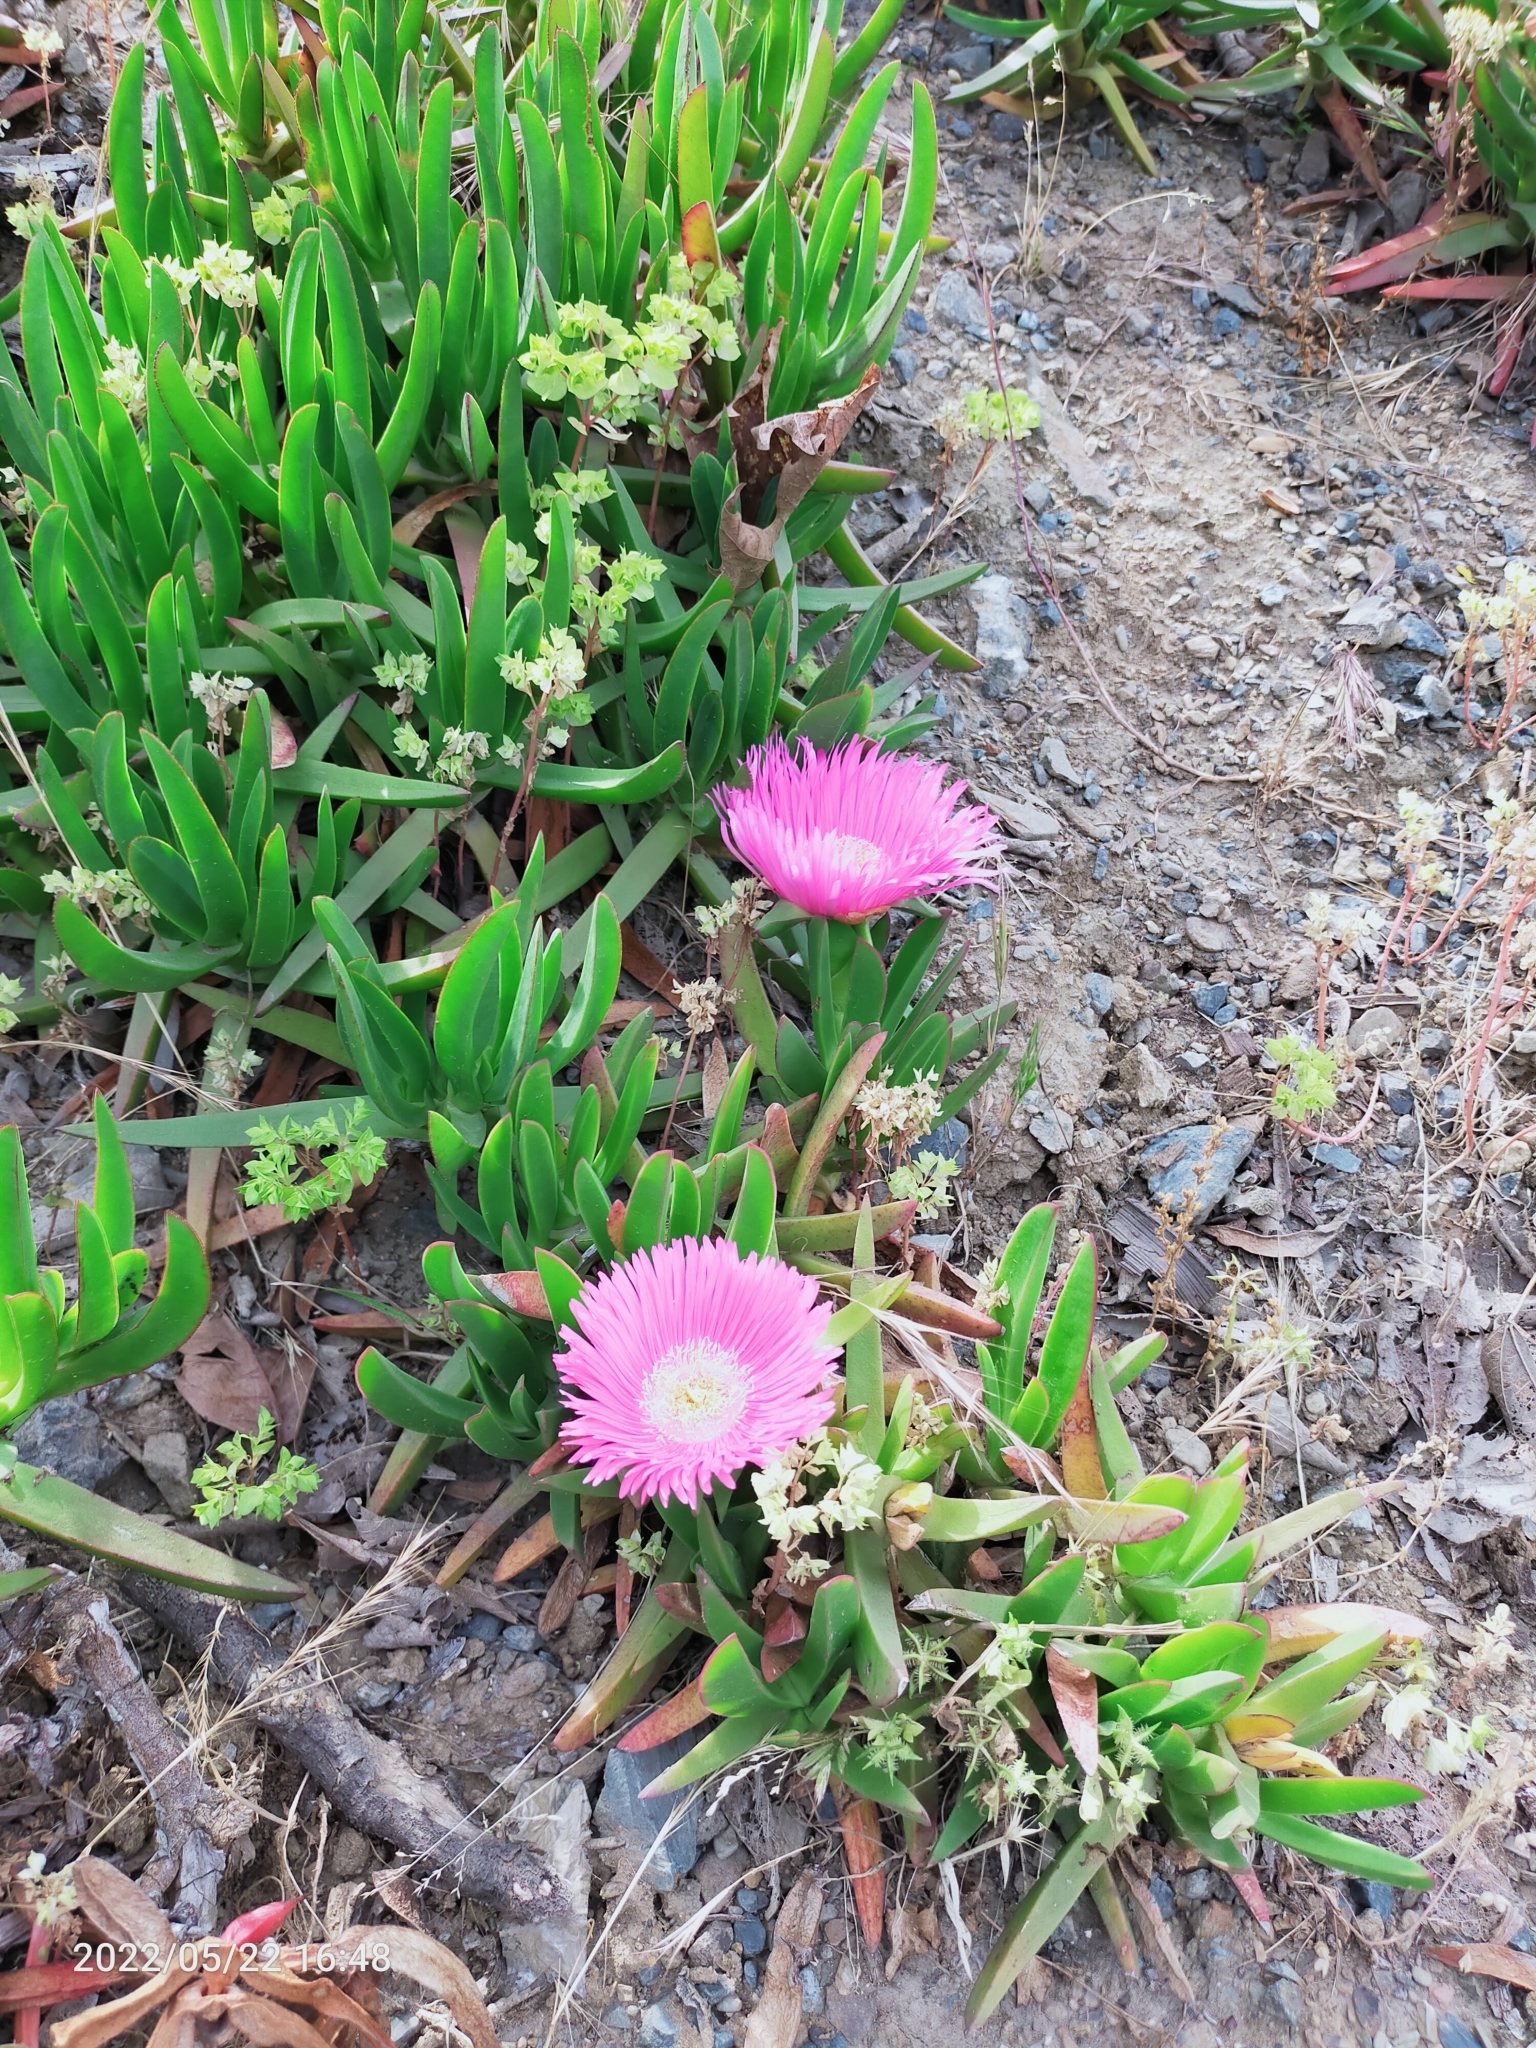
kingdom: Plantae
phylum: Tracheophyta
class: Magnoliopsida
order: Caryophyllales
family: Aizoaceae
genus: Carpobrotus
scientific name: Carpobrotus edulis
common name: Hottentot-fig
